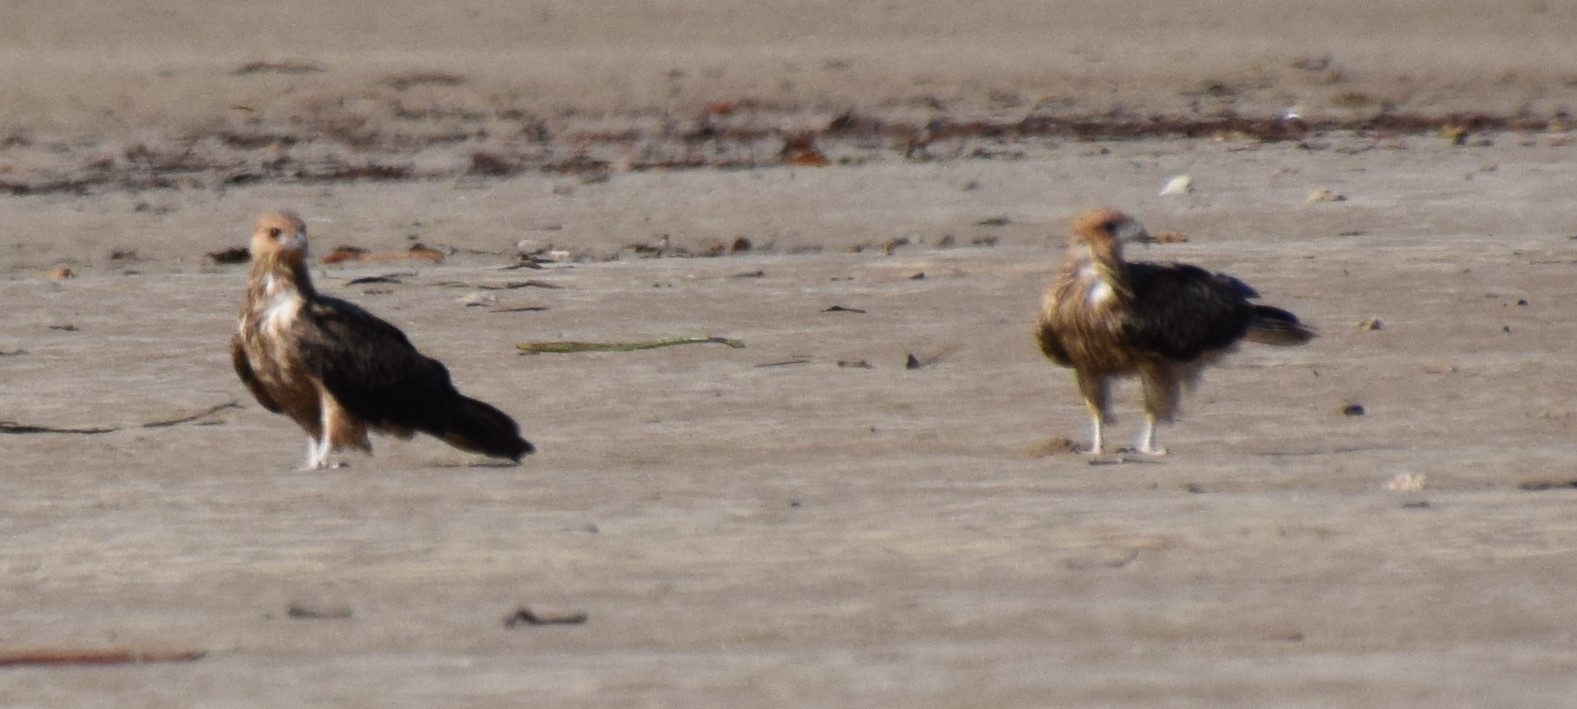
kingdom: Animalia
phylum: Chordata
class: Aves
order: Accipitriformes
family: Accipitridae
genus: Haliastur
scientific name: Haliastur sphenurus
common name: Whistling kite
